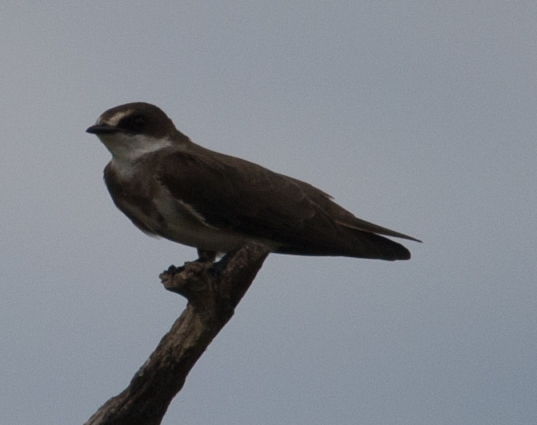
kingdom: Animalia
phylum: Chordata
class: Aves
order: Passeriformes
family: Hirundinidae
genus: Riparia
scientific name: Riparia cincta
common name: Banded martin
